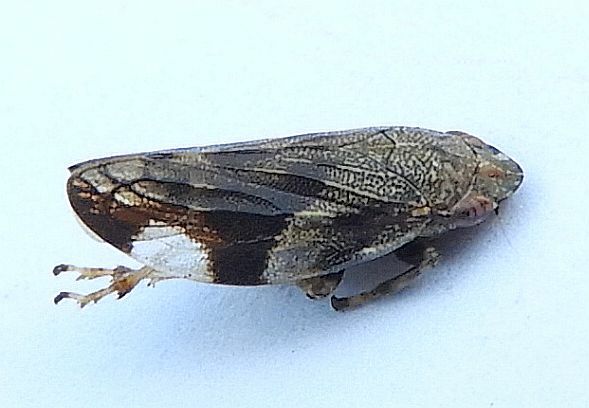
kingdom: Animalia
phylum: Arthropoda
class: Insecta
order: Hemiptera
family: Aphrophoridae
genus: Aphrophora
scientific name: Aphrophora quadrinotata
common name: Four-spotted spittlebug
